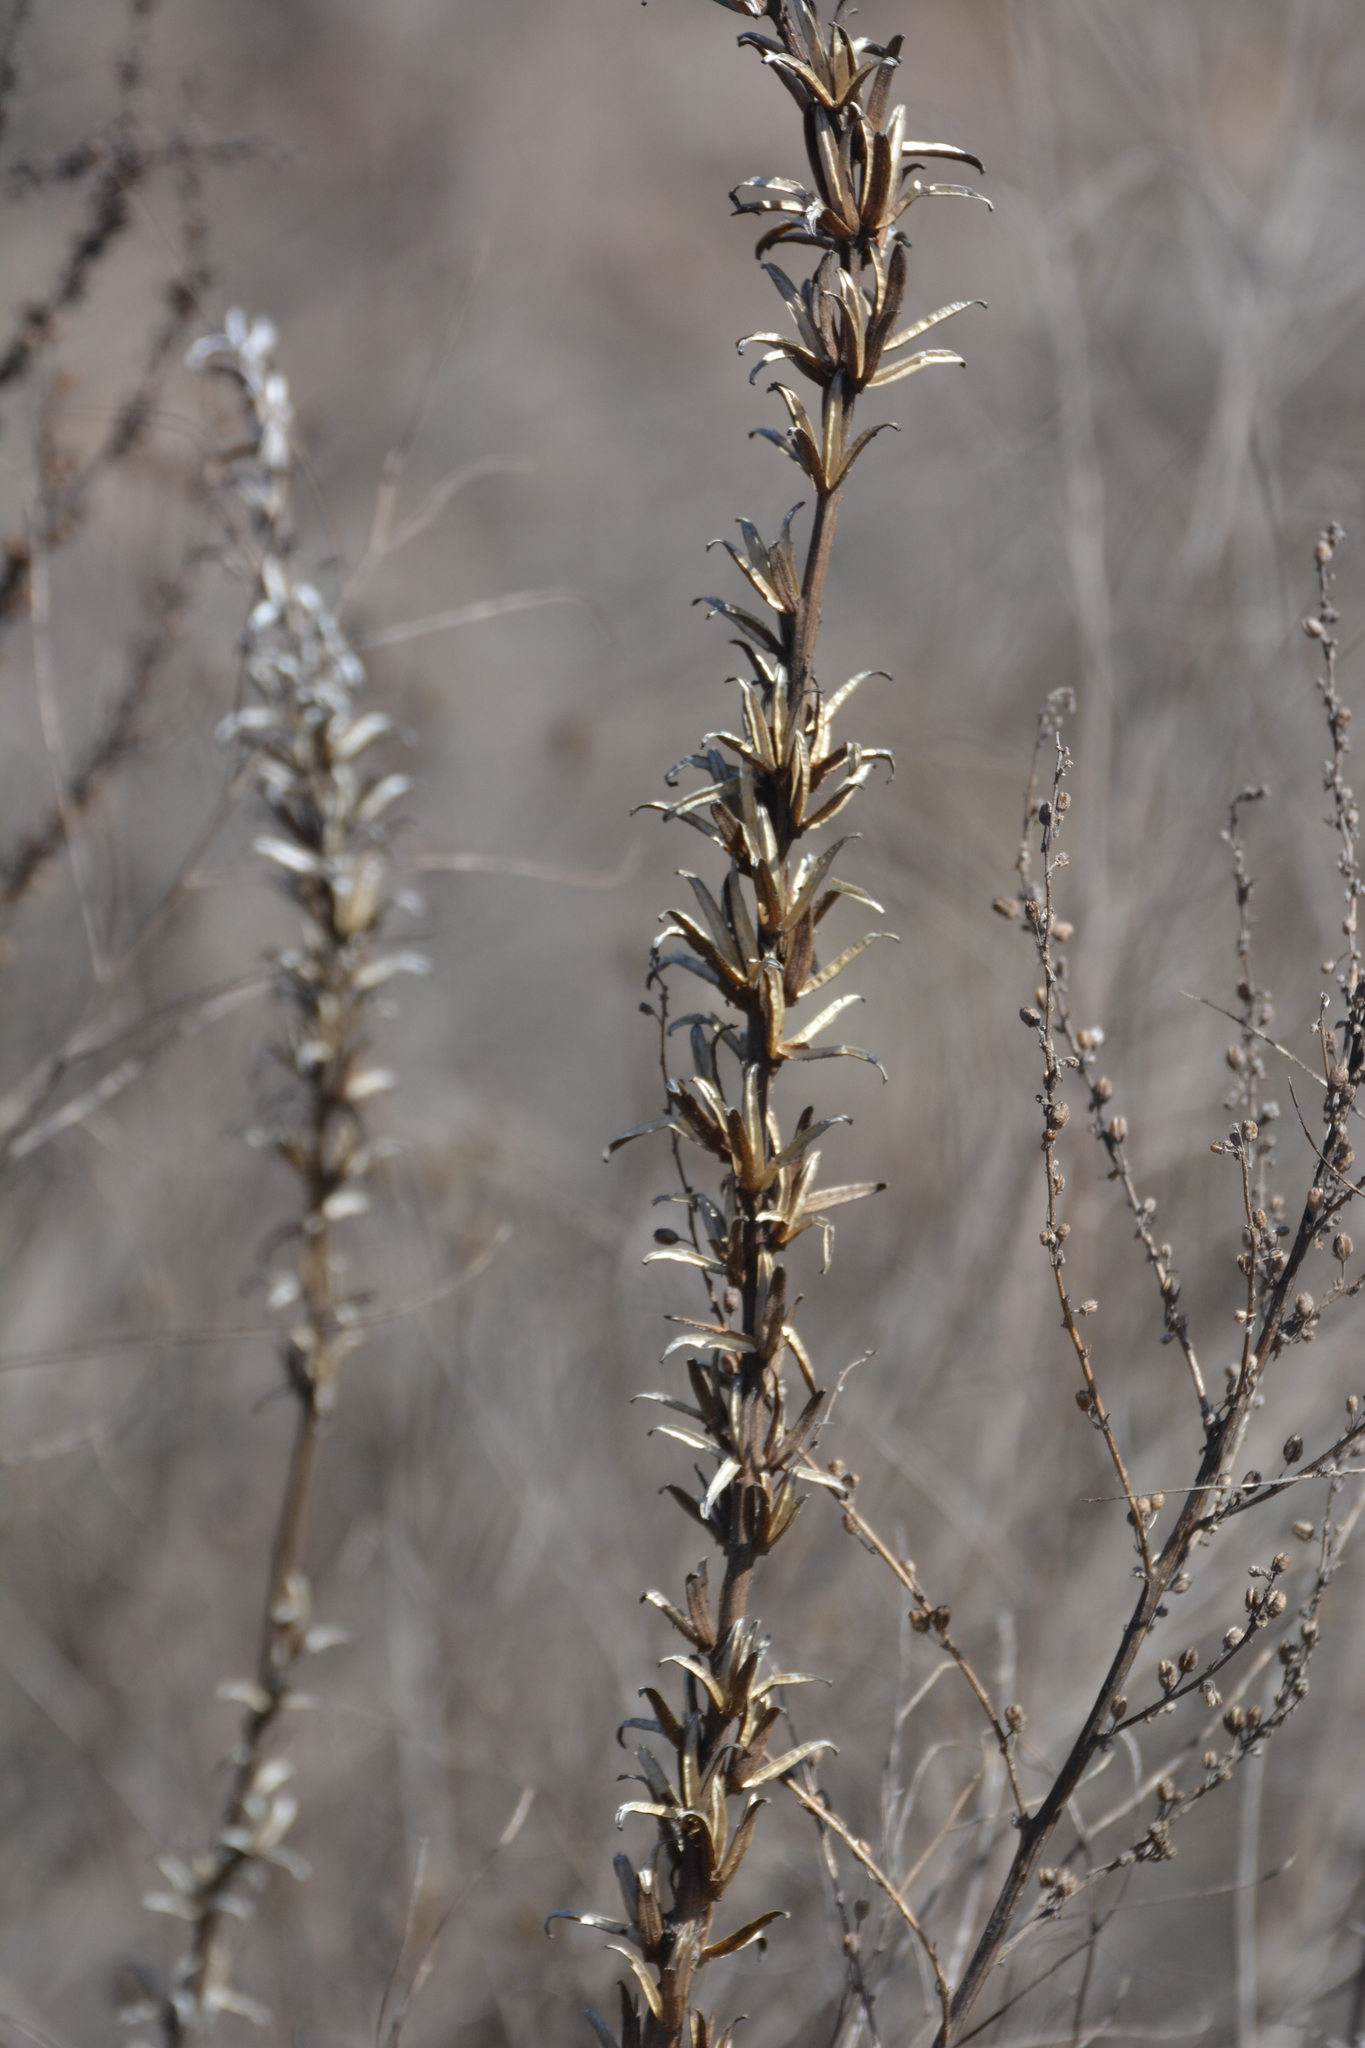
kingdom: Plantae
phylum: Tracheophyta
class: Magnoliopsida
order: Myrtales
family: Onagraceae
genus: Oenothera
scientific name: Oenothera
